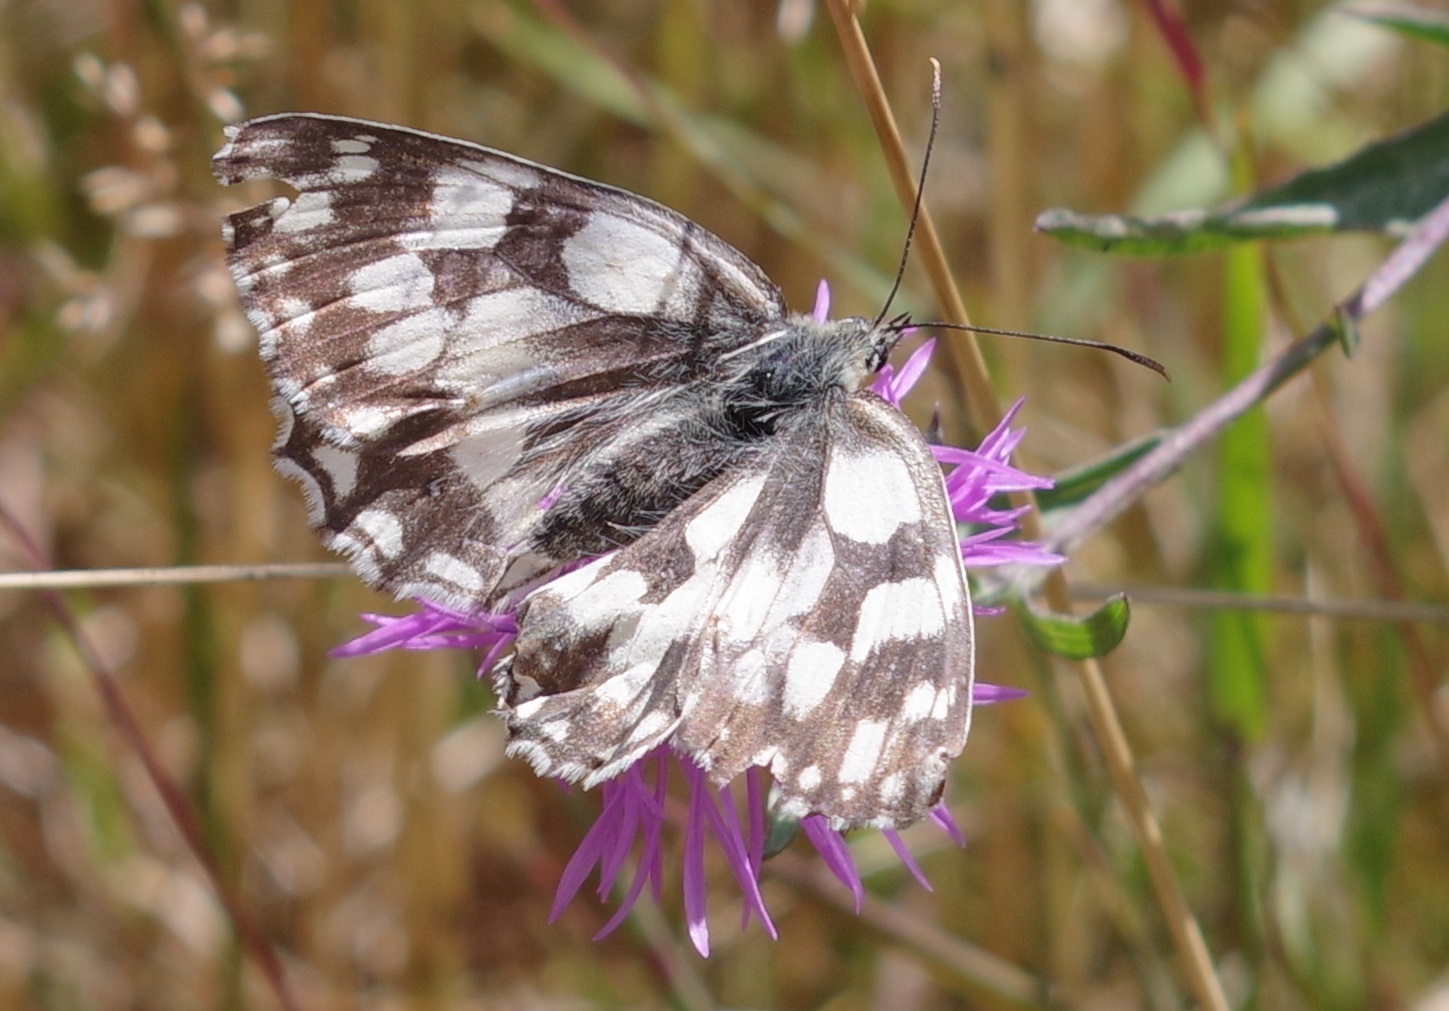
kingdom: Animalia
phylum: Arthropoda
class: Insecta
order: Lepidoptera
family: Nymphalidae
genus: Melanargia
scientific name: Melanargia galathea
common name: Marbled white
